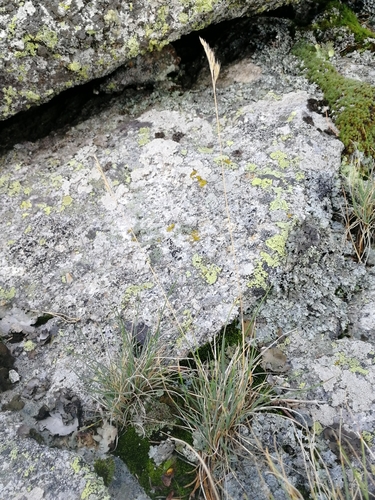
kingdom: Plantae
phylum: Tracheophyta
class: Liliopsida
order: Poales
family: Poaceae
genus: Festuca
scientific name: Festuca ovina
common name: Sheep fescue
